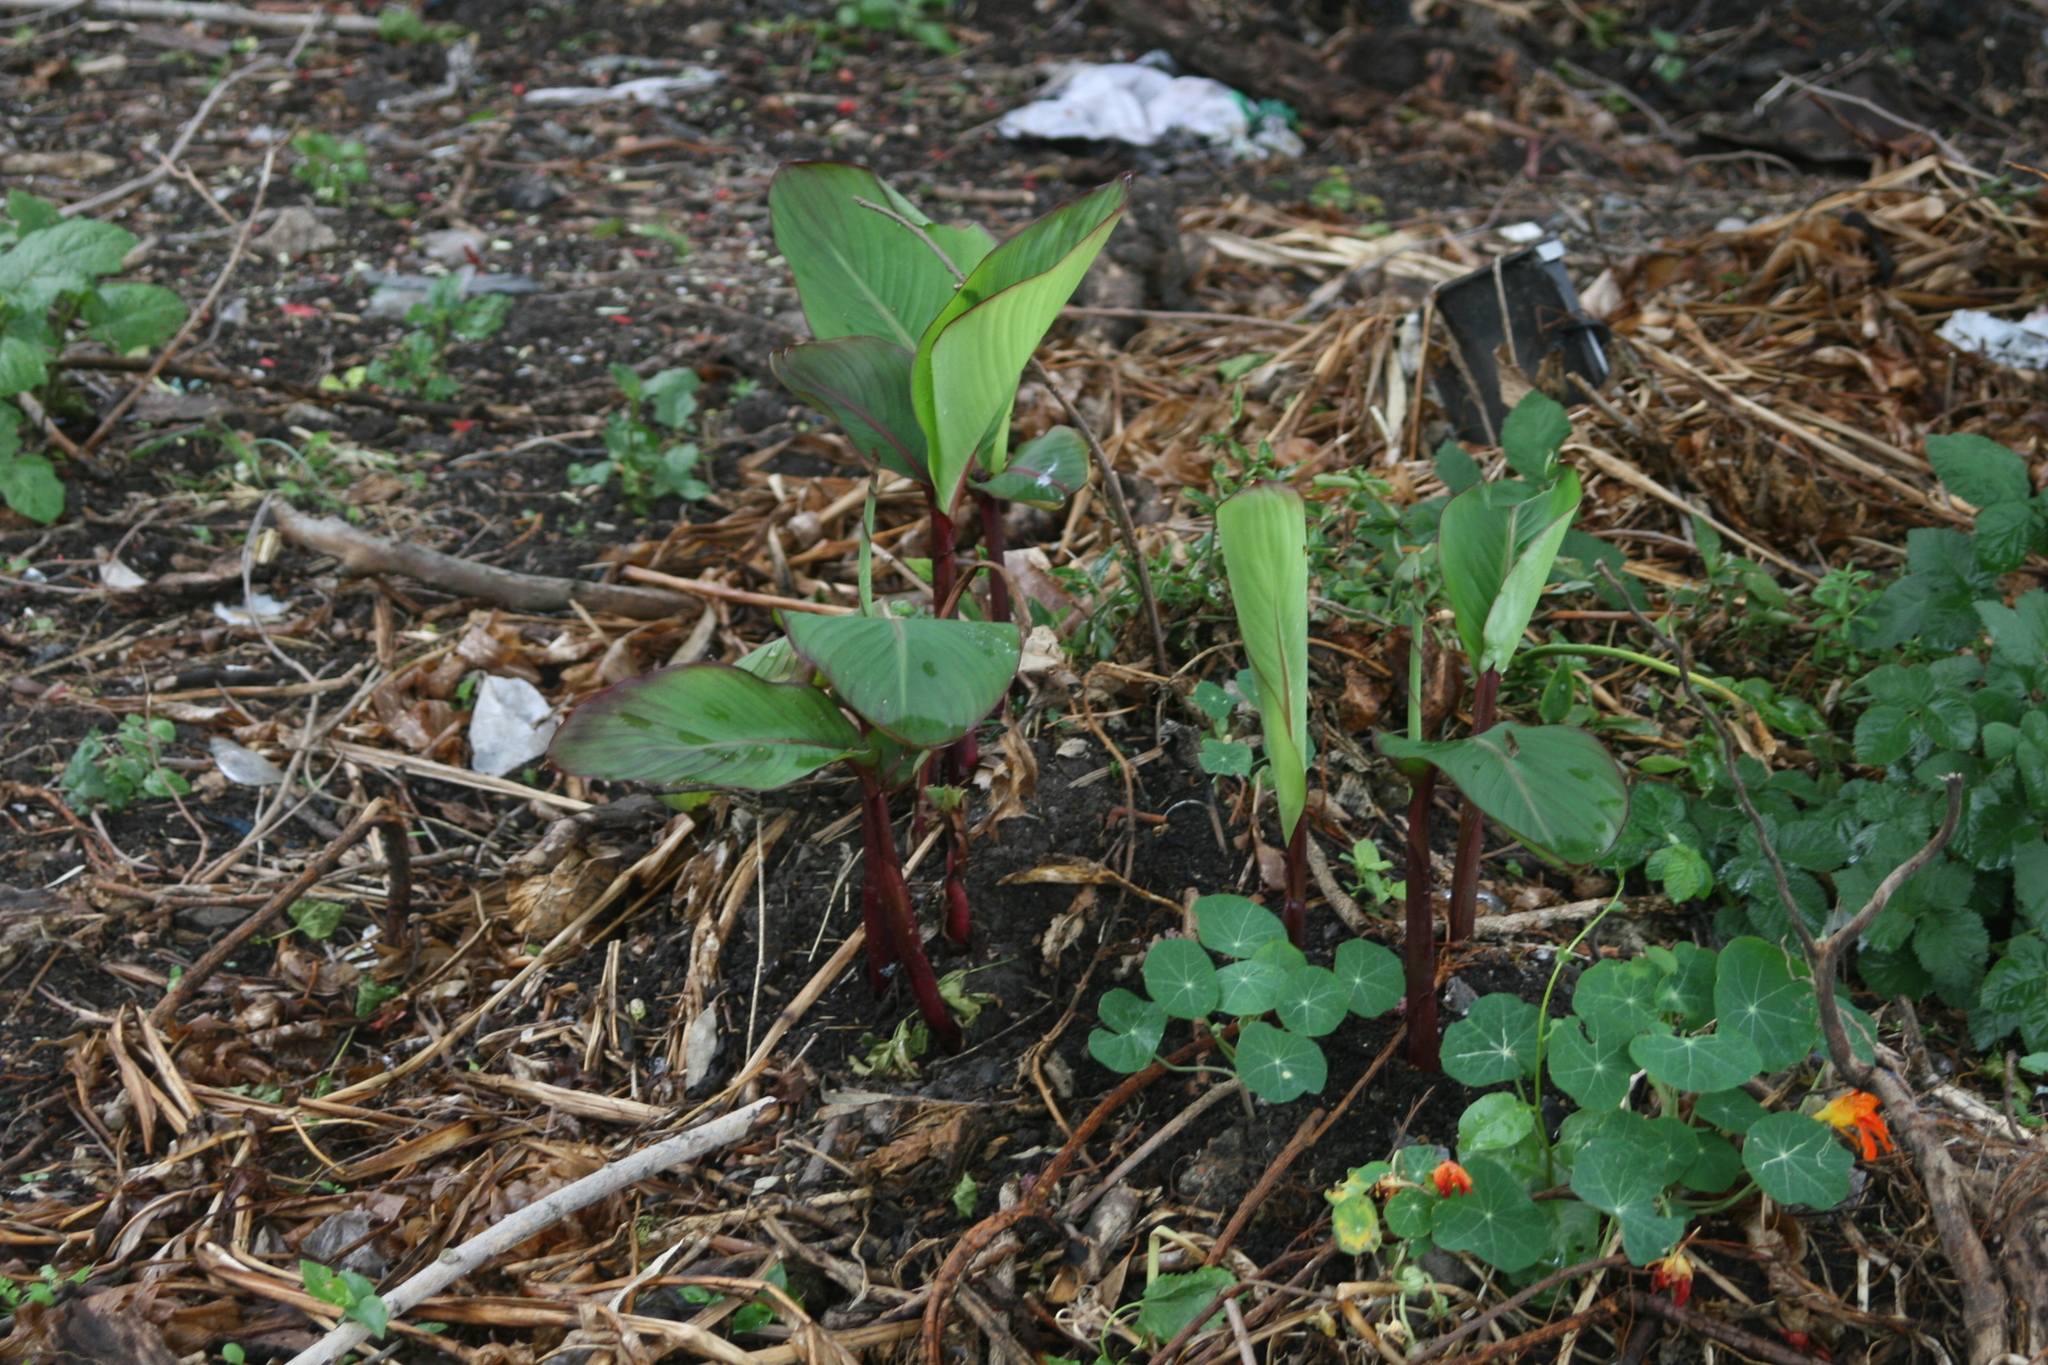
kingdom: Plantae
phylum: Tracheophyta
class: Liliopsida
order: Zingiberales
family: Cannaceae
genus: Canna
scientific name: Canna indica
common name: Indian shot
